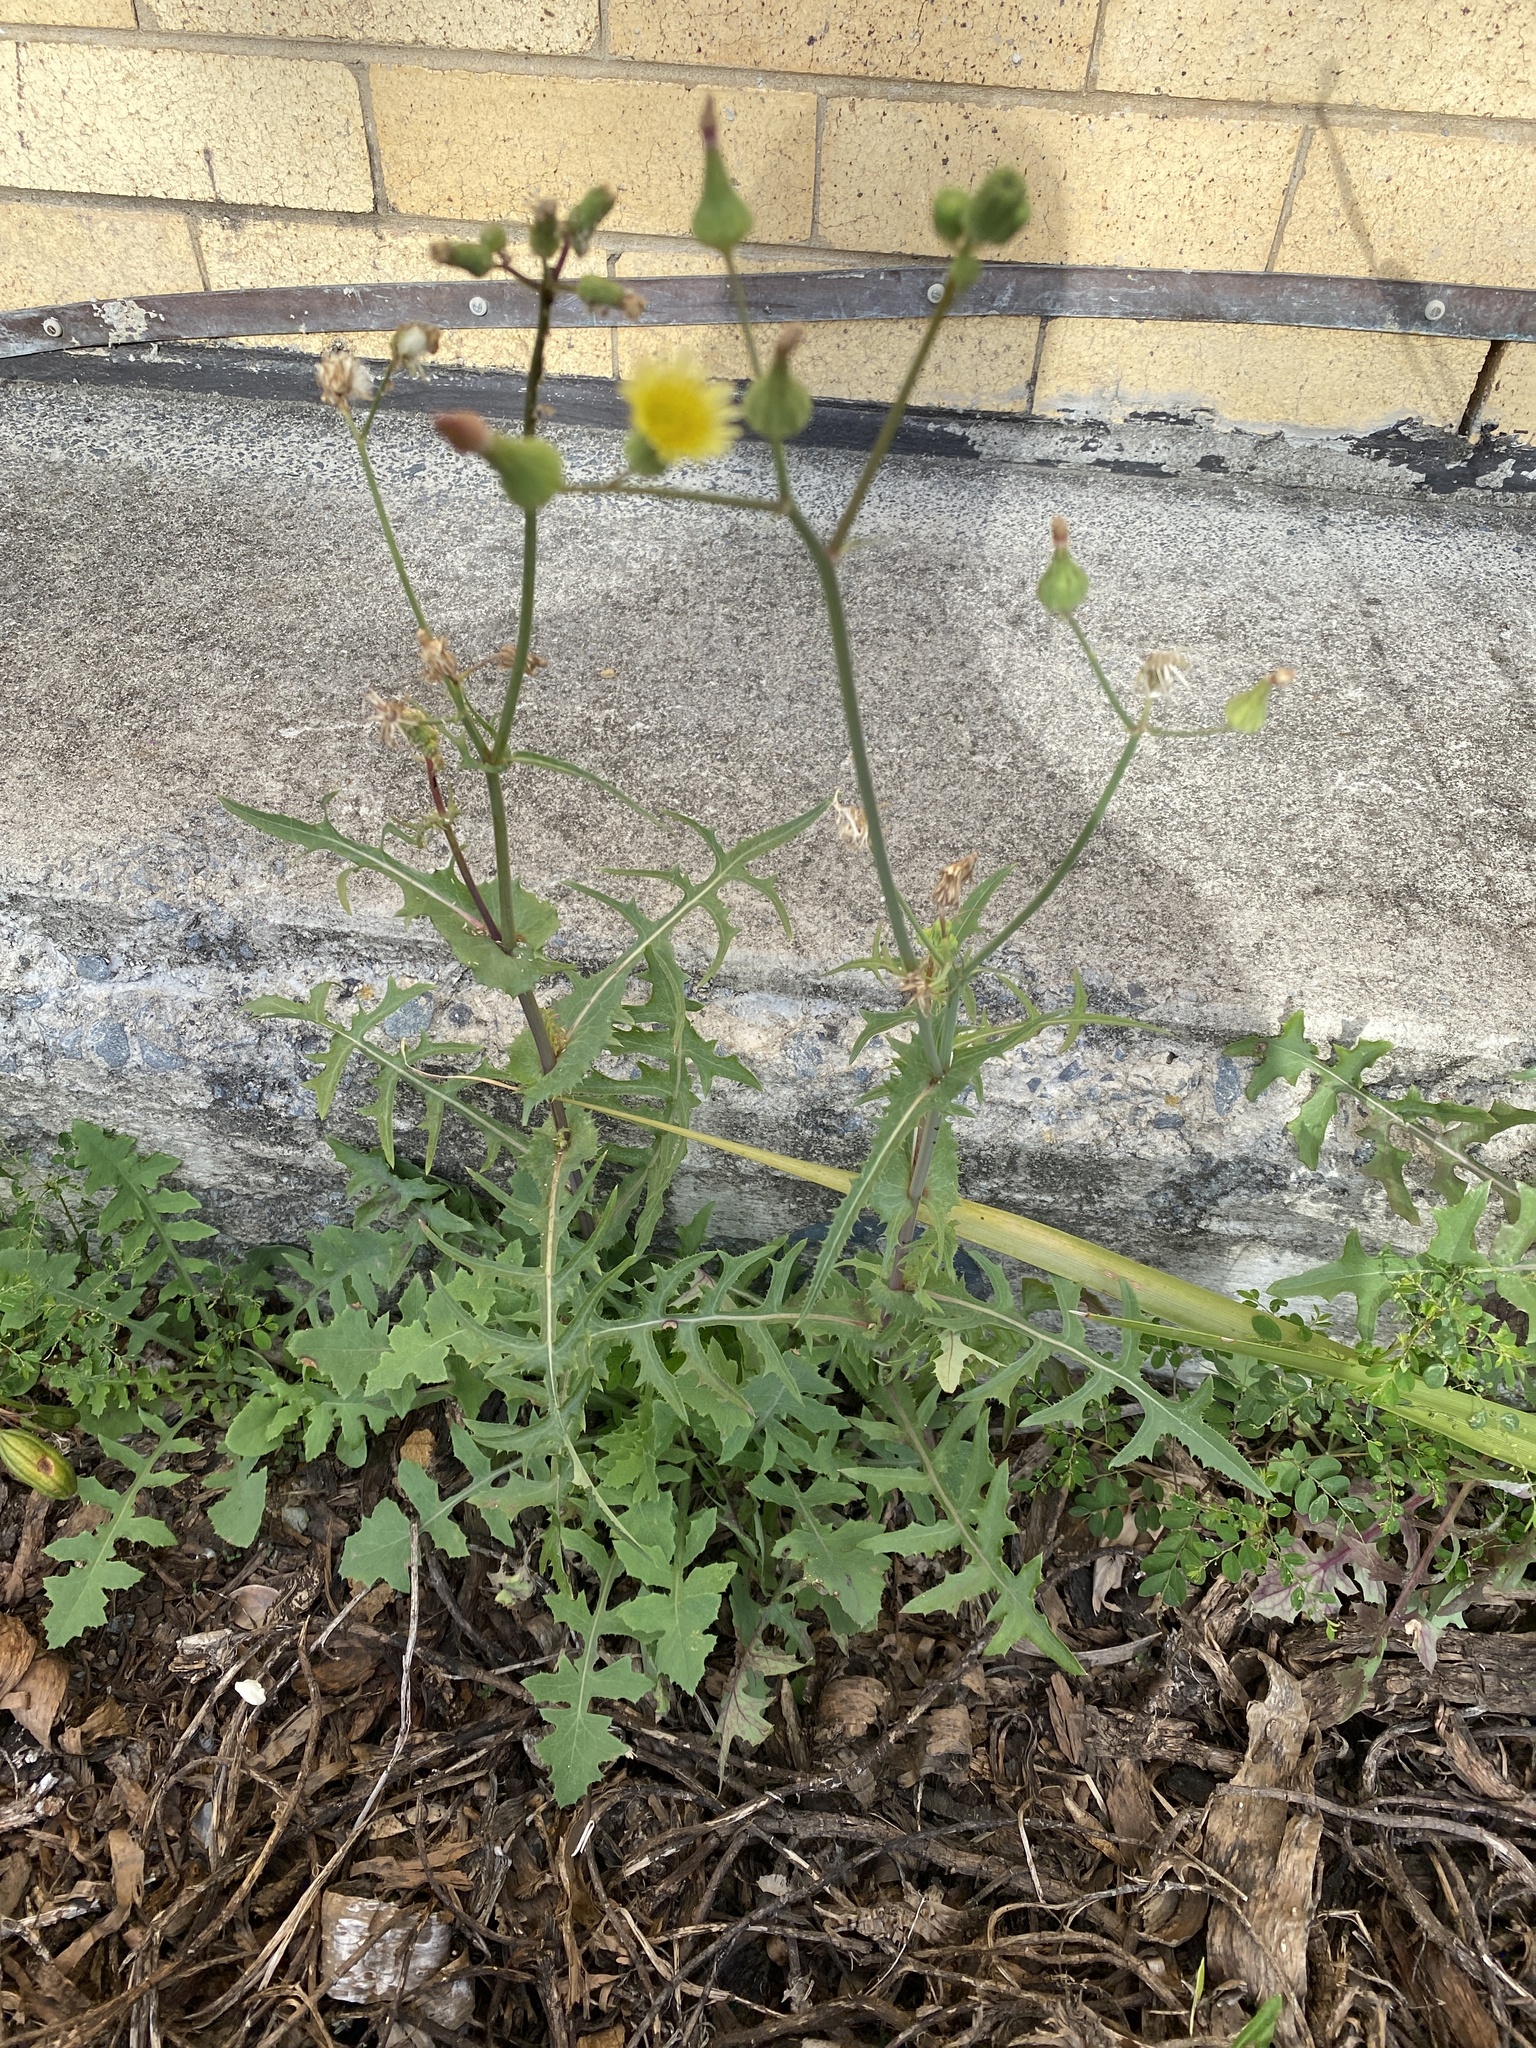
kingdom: Plantae
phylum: Tracheophyta
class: Magnoliopsida
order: Asterales
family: Asteraceae
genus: Sonchus
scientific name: Sonchus oleraceus
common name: Common sowthistle
